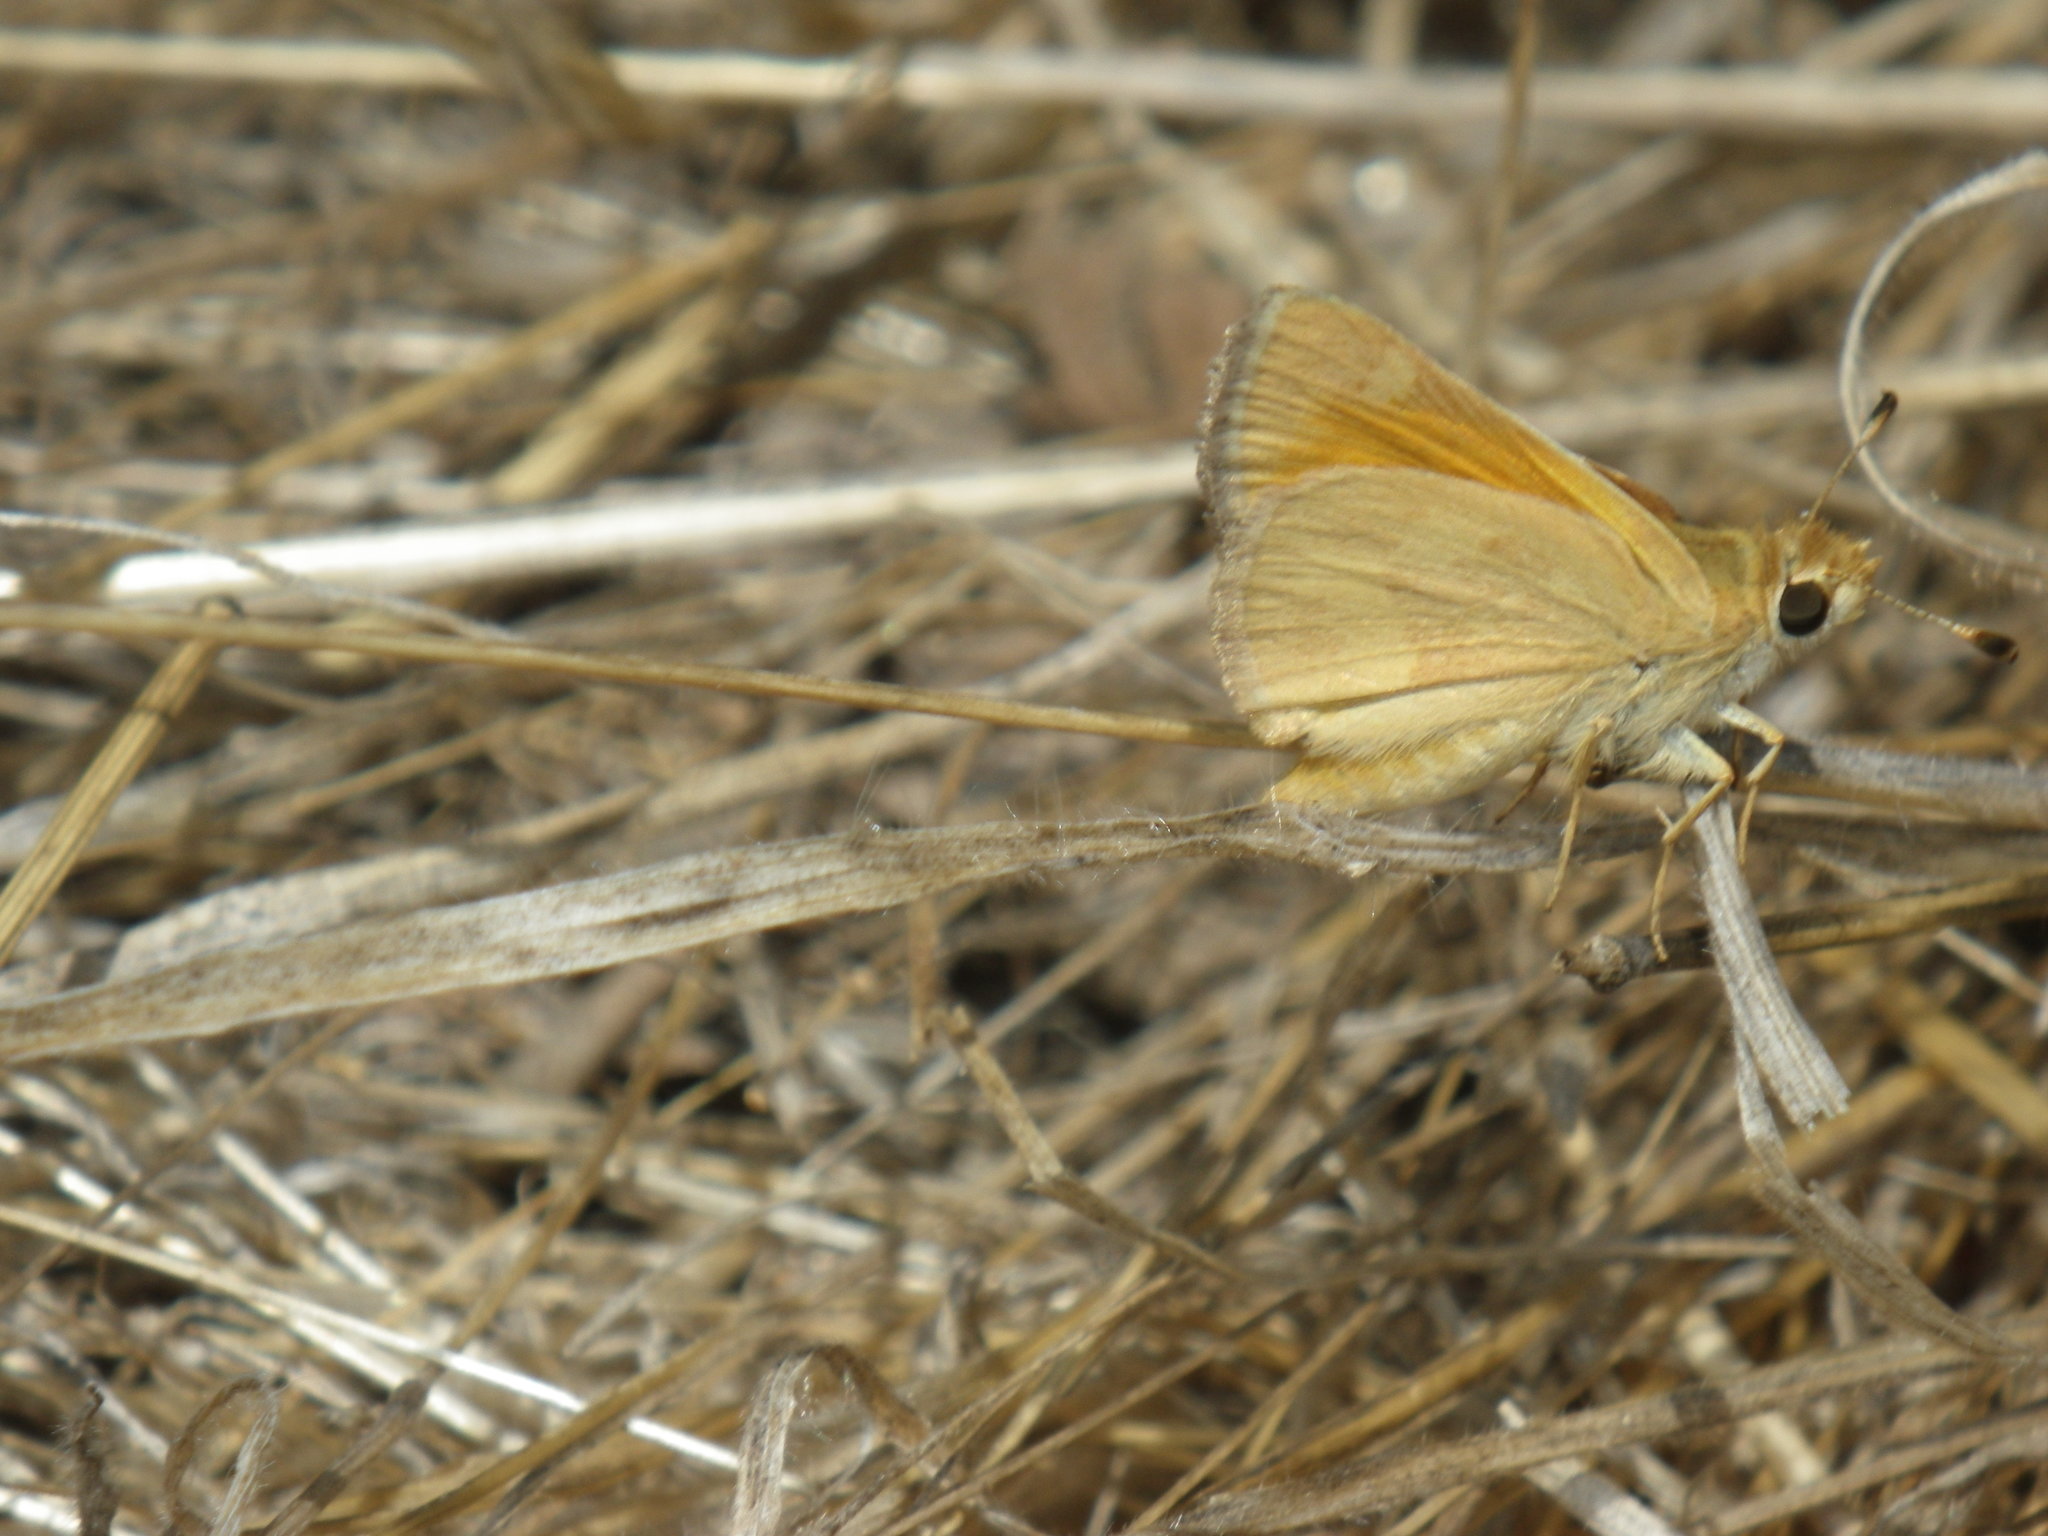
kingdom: Animalia
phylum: Arthropoda
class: Insecta
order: Lepidoptera
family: Hesperiidae
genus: Ochlodes
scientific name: Ochlodes sylvanoides
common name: Woodland skipper
